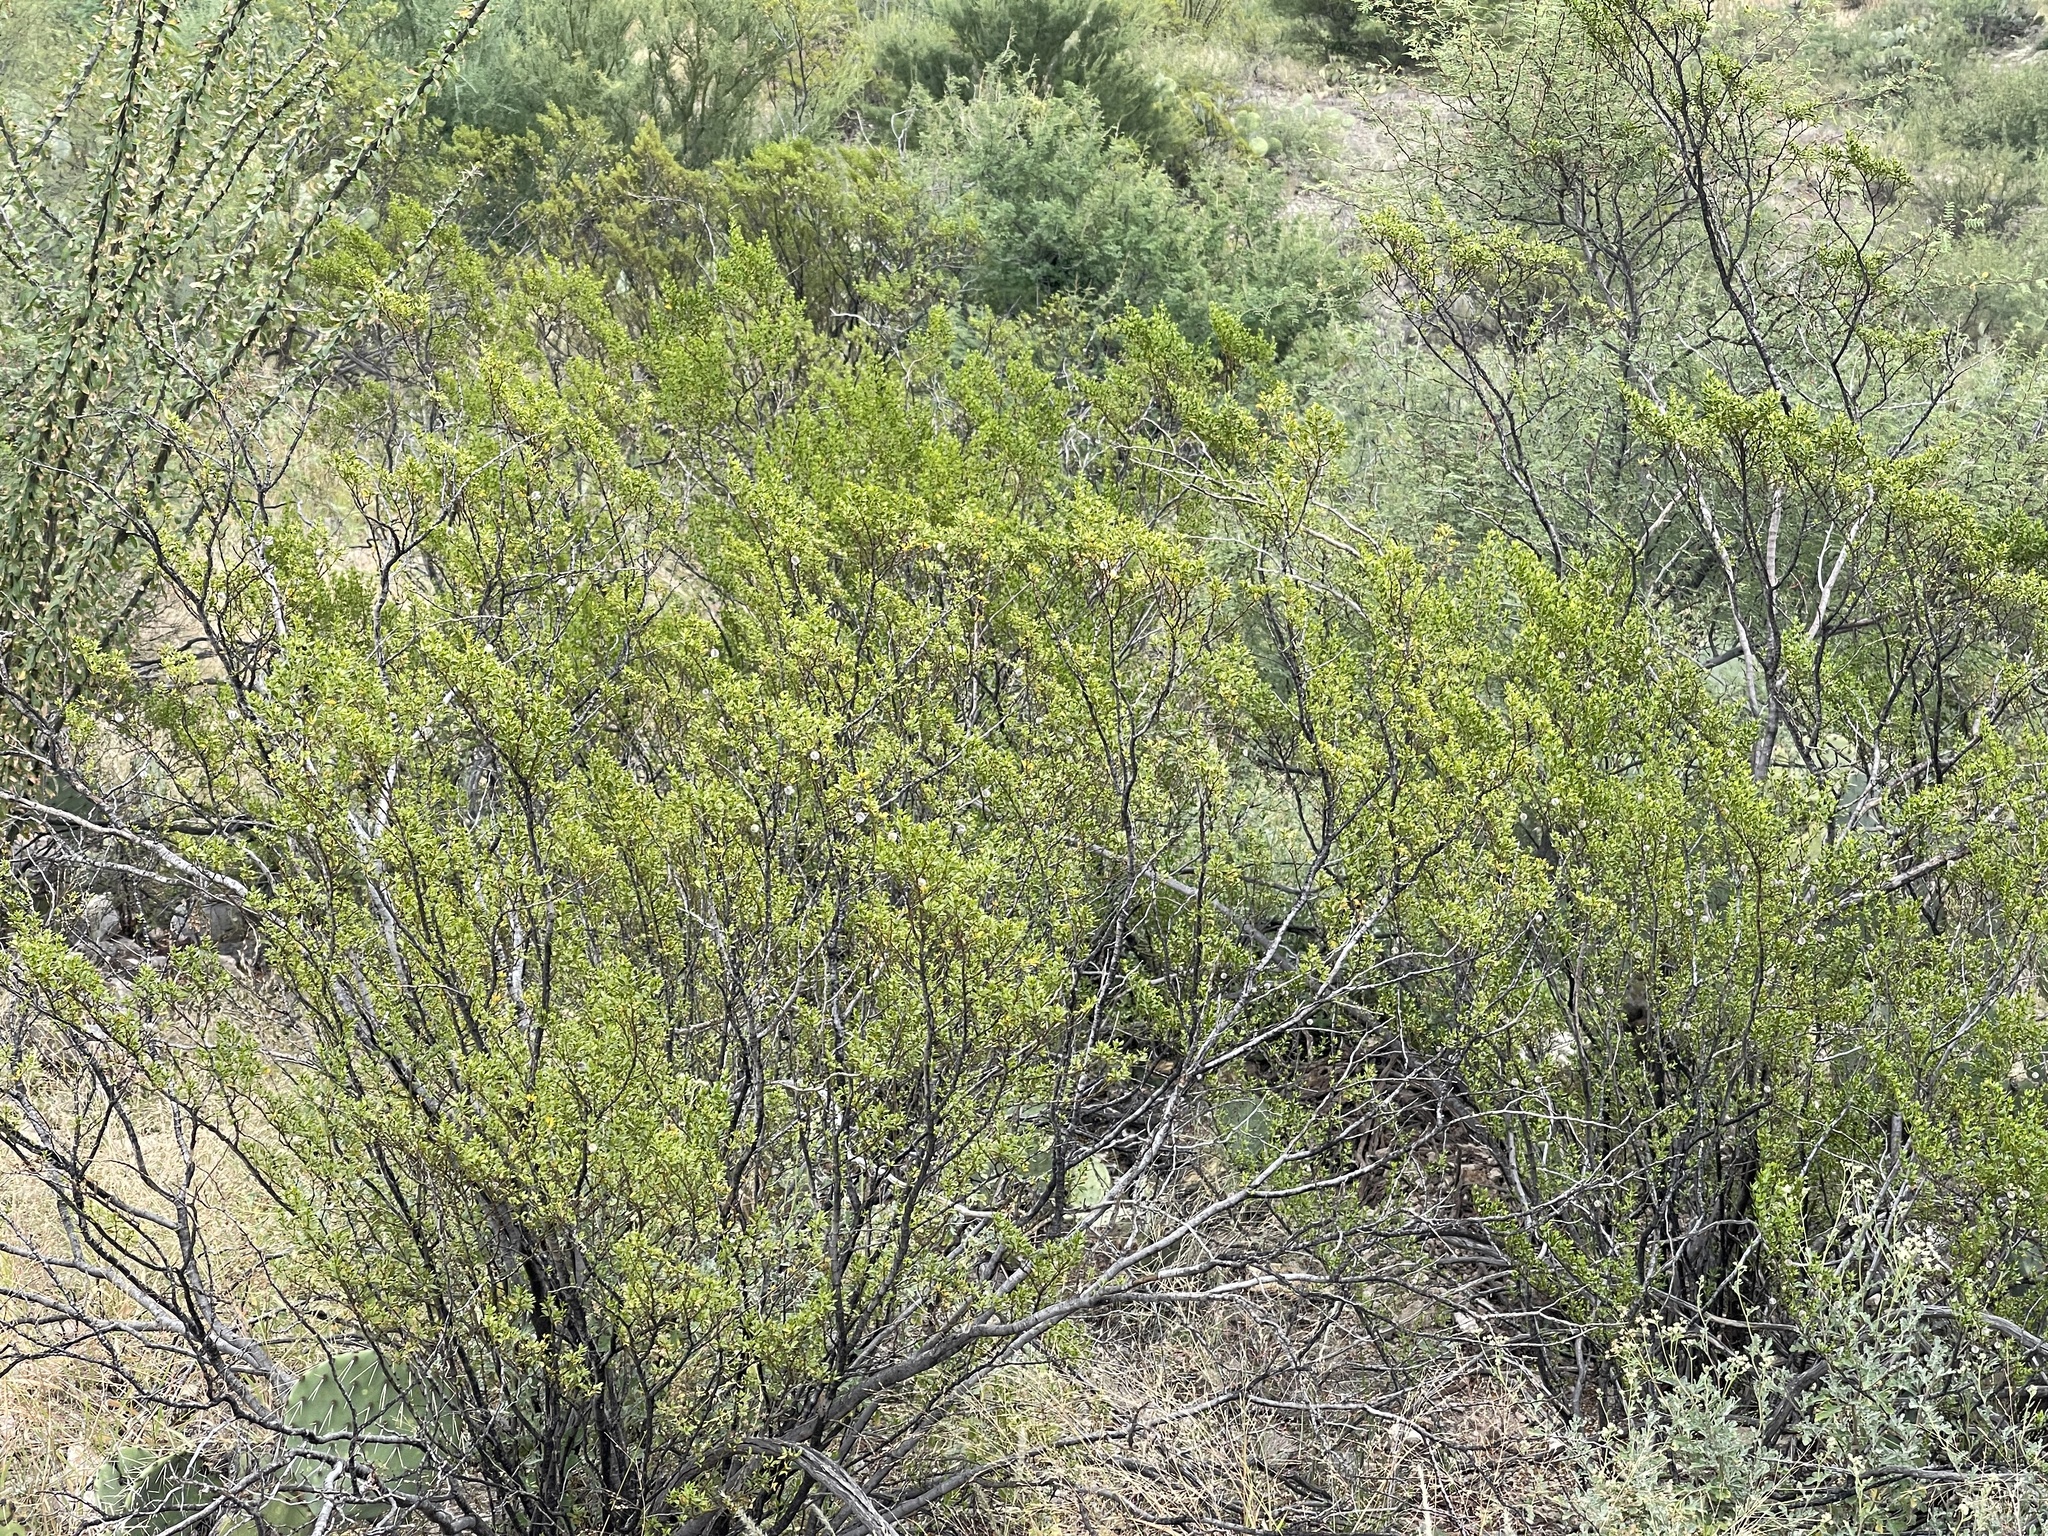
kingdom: Plantae
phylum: Tracheophyta
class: Magnoliopsida
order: Zygophyllales
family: Zygophyllaceae
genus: Larrea
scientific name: Larrea tridentata
